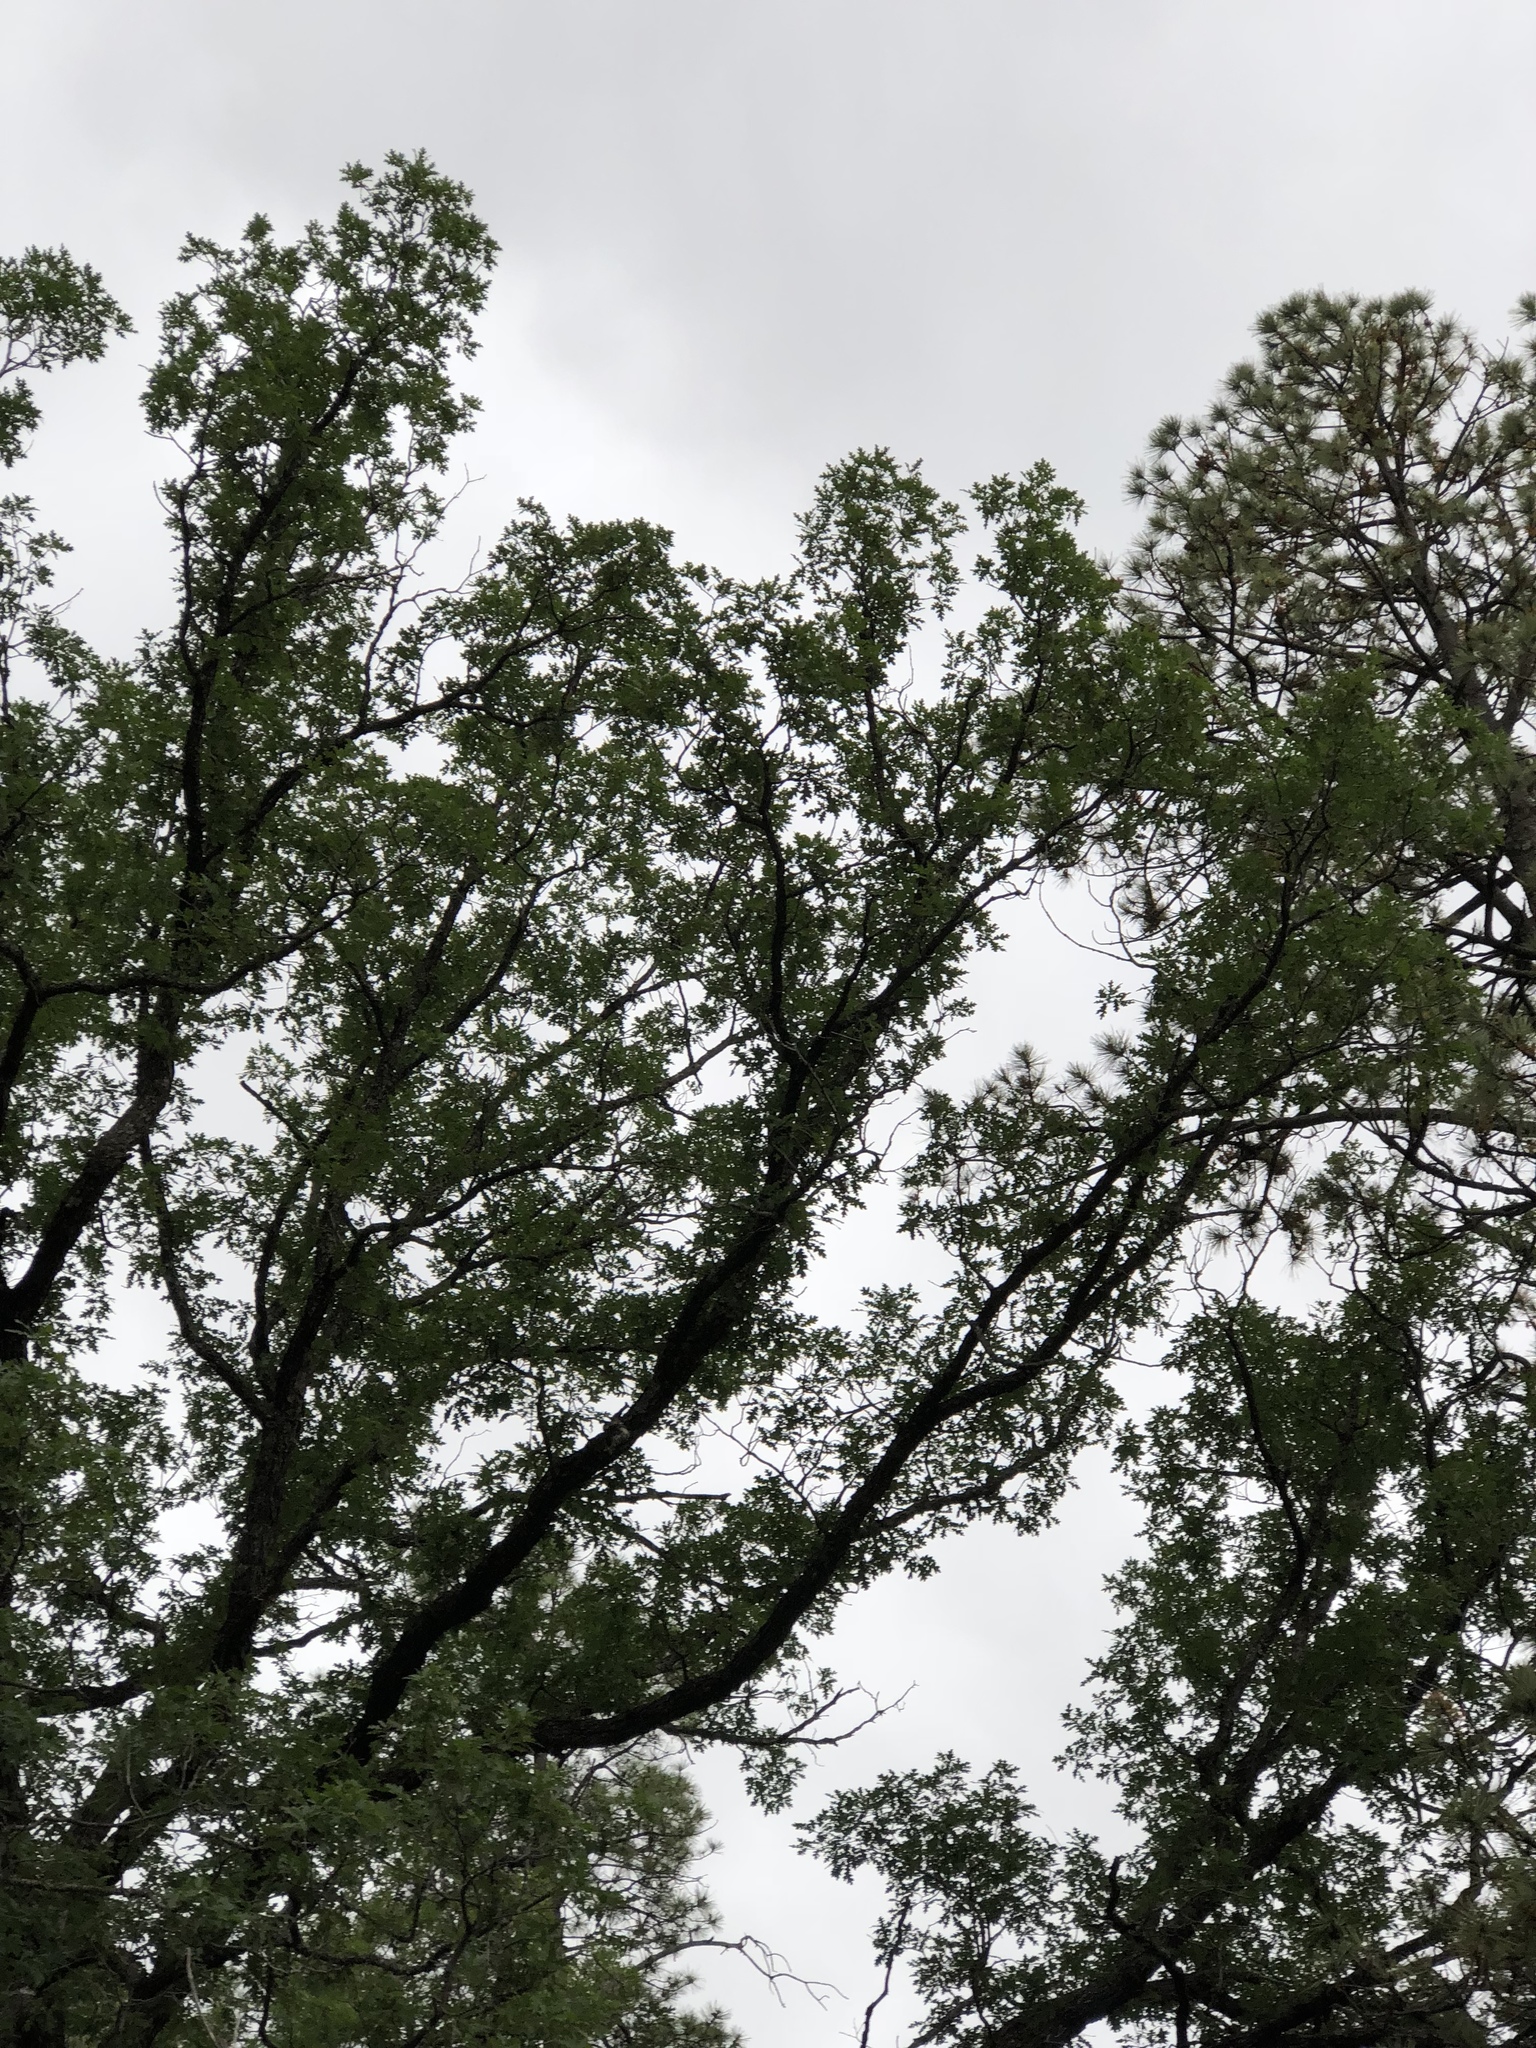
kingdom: Plantae
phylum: Tracheophyta
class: Magnoliopsida
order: Fagales
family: Fagaceae
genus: Quercus
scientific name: Quercus gambelii
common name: Gambel oak
